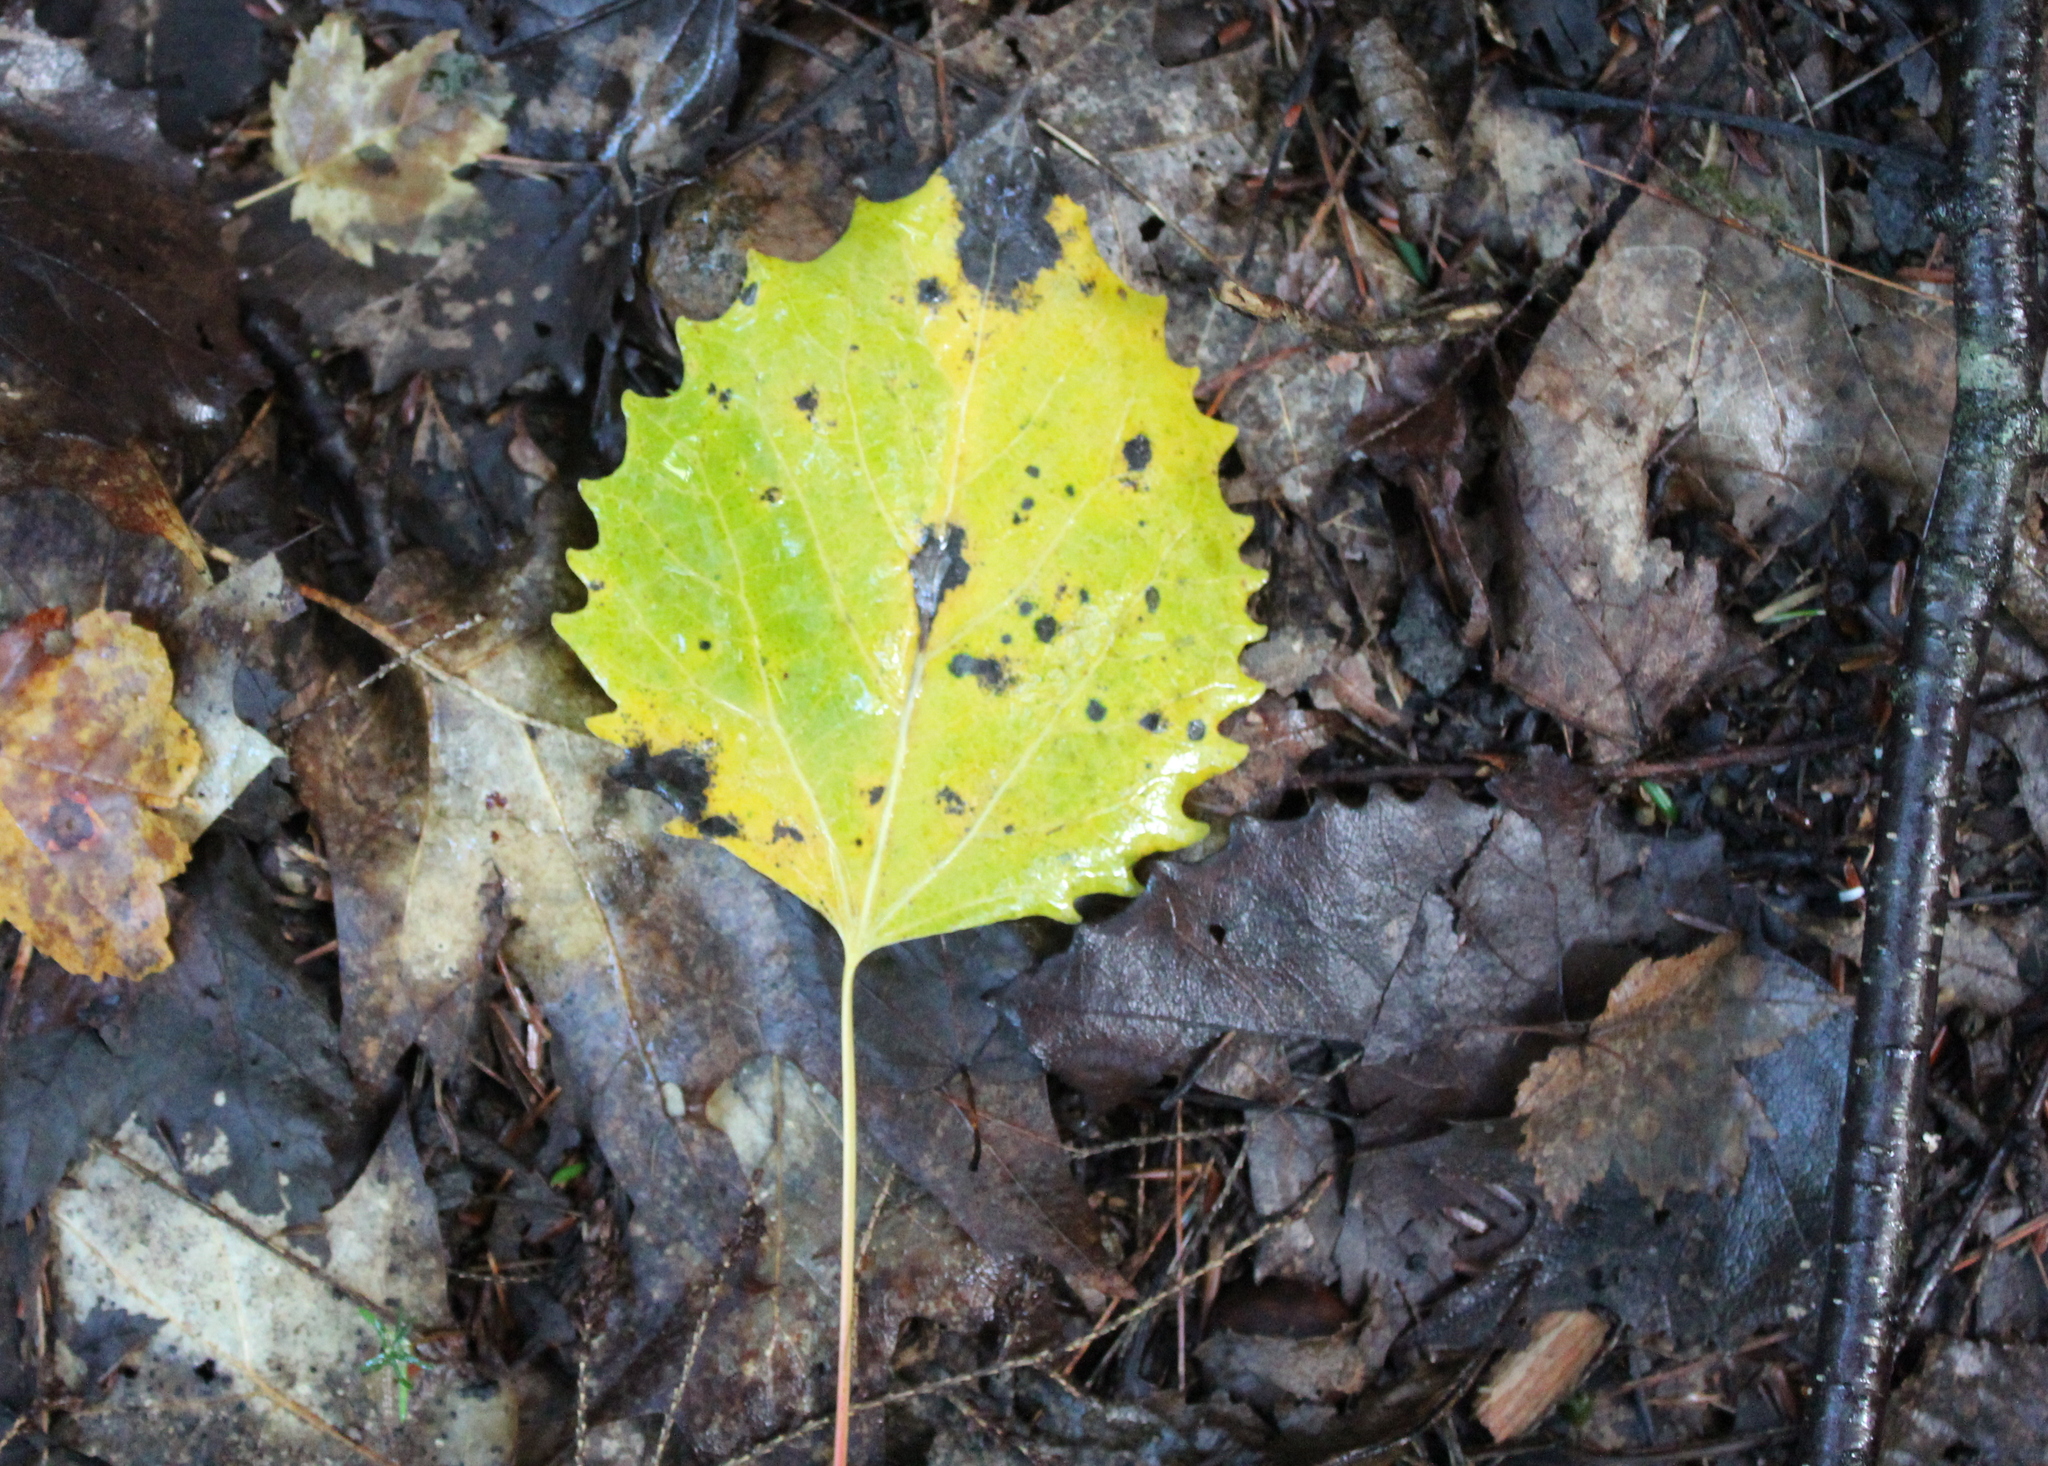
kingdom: Plantae
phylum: Tracheophyta
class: Magnoliopsida
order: Malpighiales
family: Salicaceae
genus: Populus
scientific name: Populus grandidentata
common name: Bigtooth aspen
